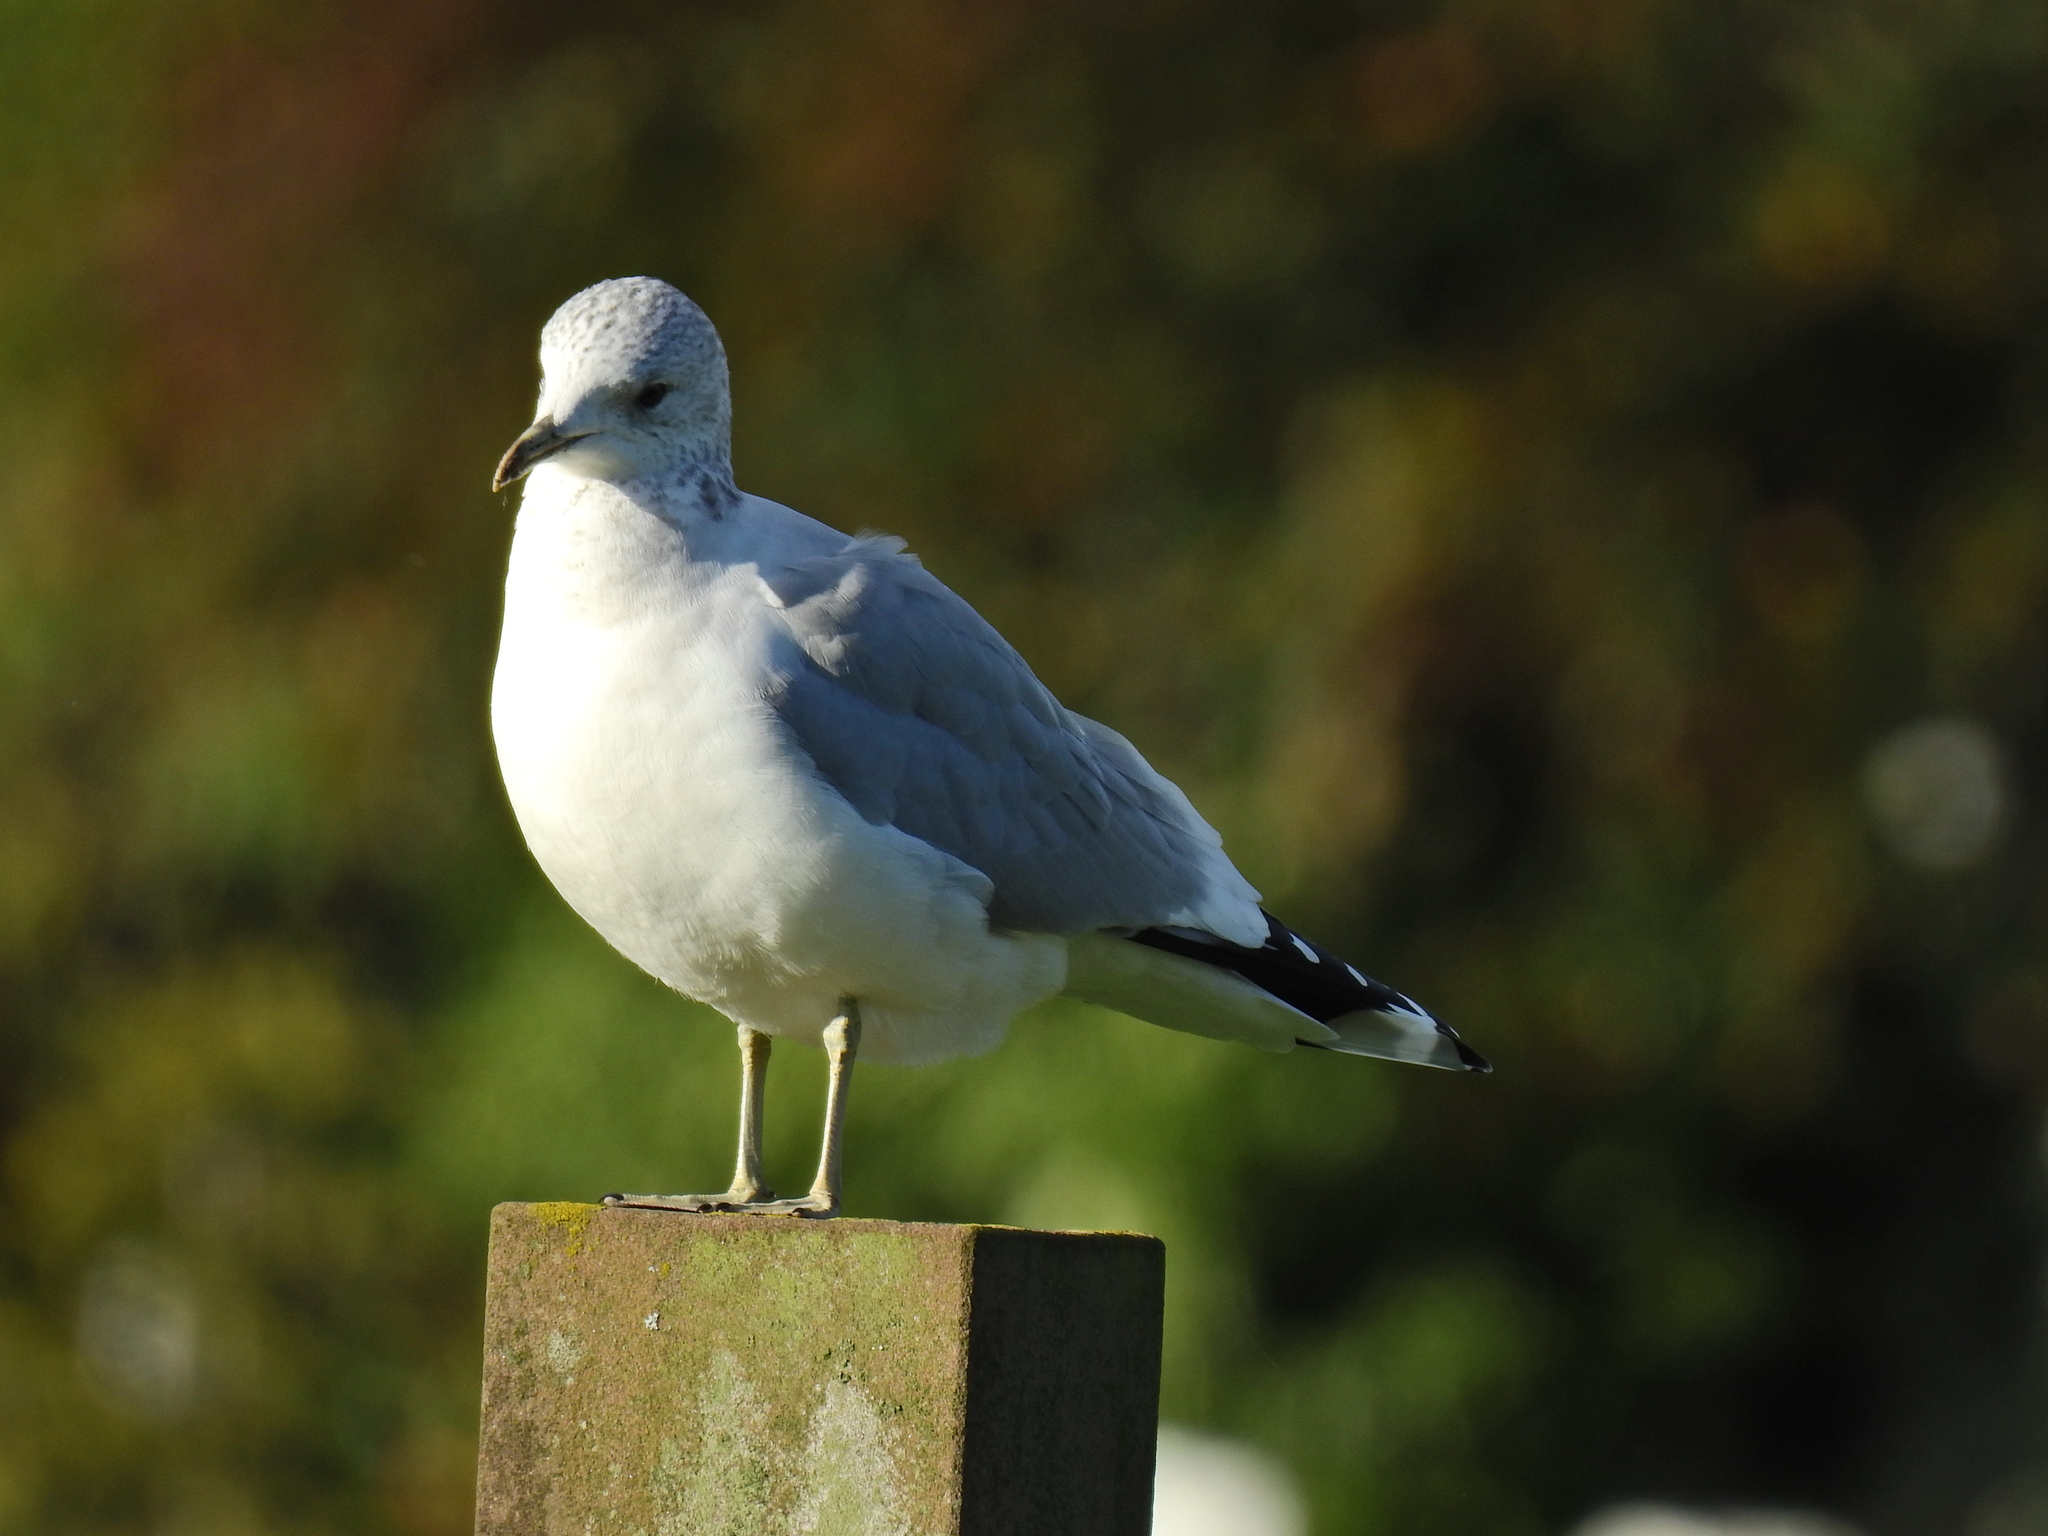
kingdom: Animalia
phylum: Chordata
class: Aves
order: Charadriiformes
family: Laridae
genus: Larus
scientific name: Larus canus
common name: Mew gull
